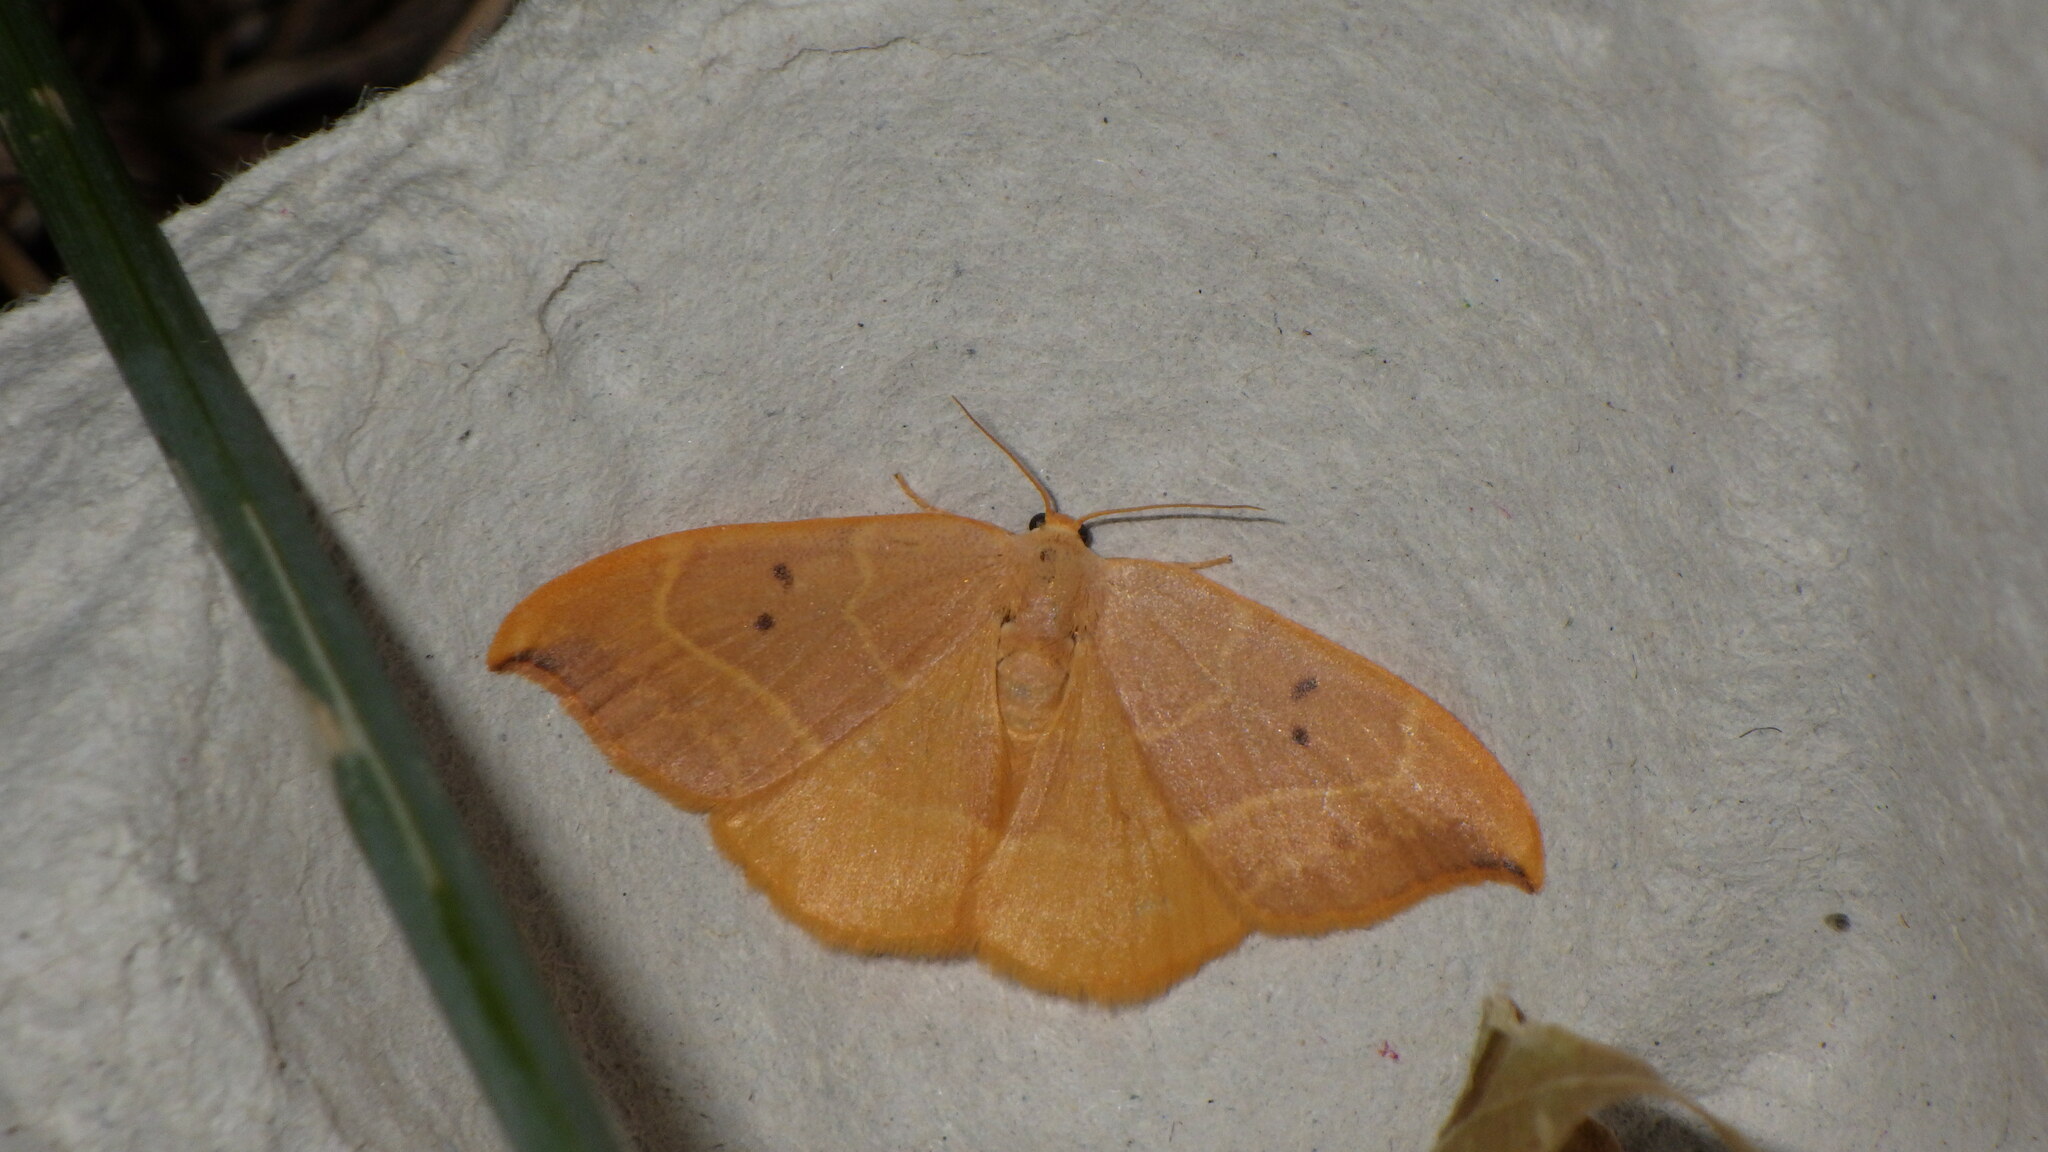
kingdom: Animalia
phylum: Arthropoda
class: Insecta
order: Lepidoptera
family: Drepanidae
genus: Watsonalla
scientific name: Watsonalla uncinula
